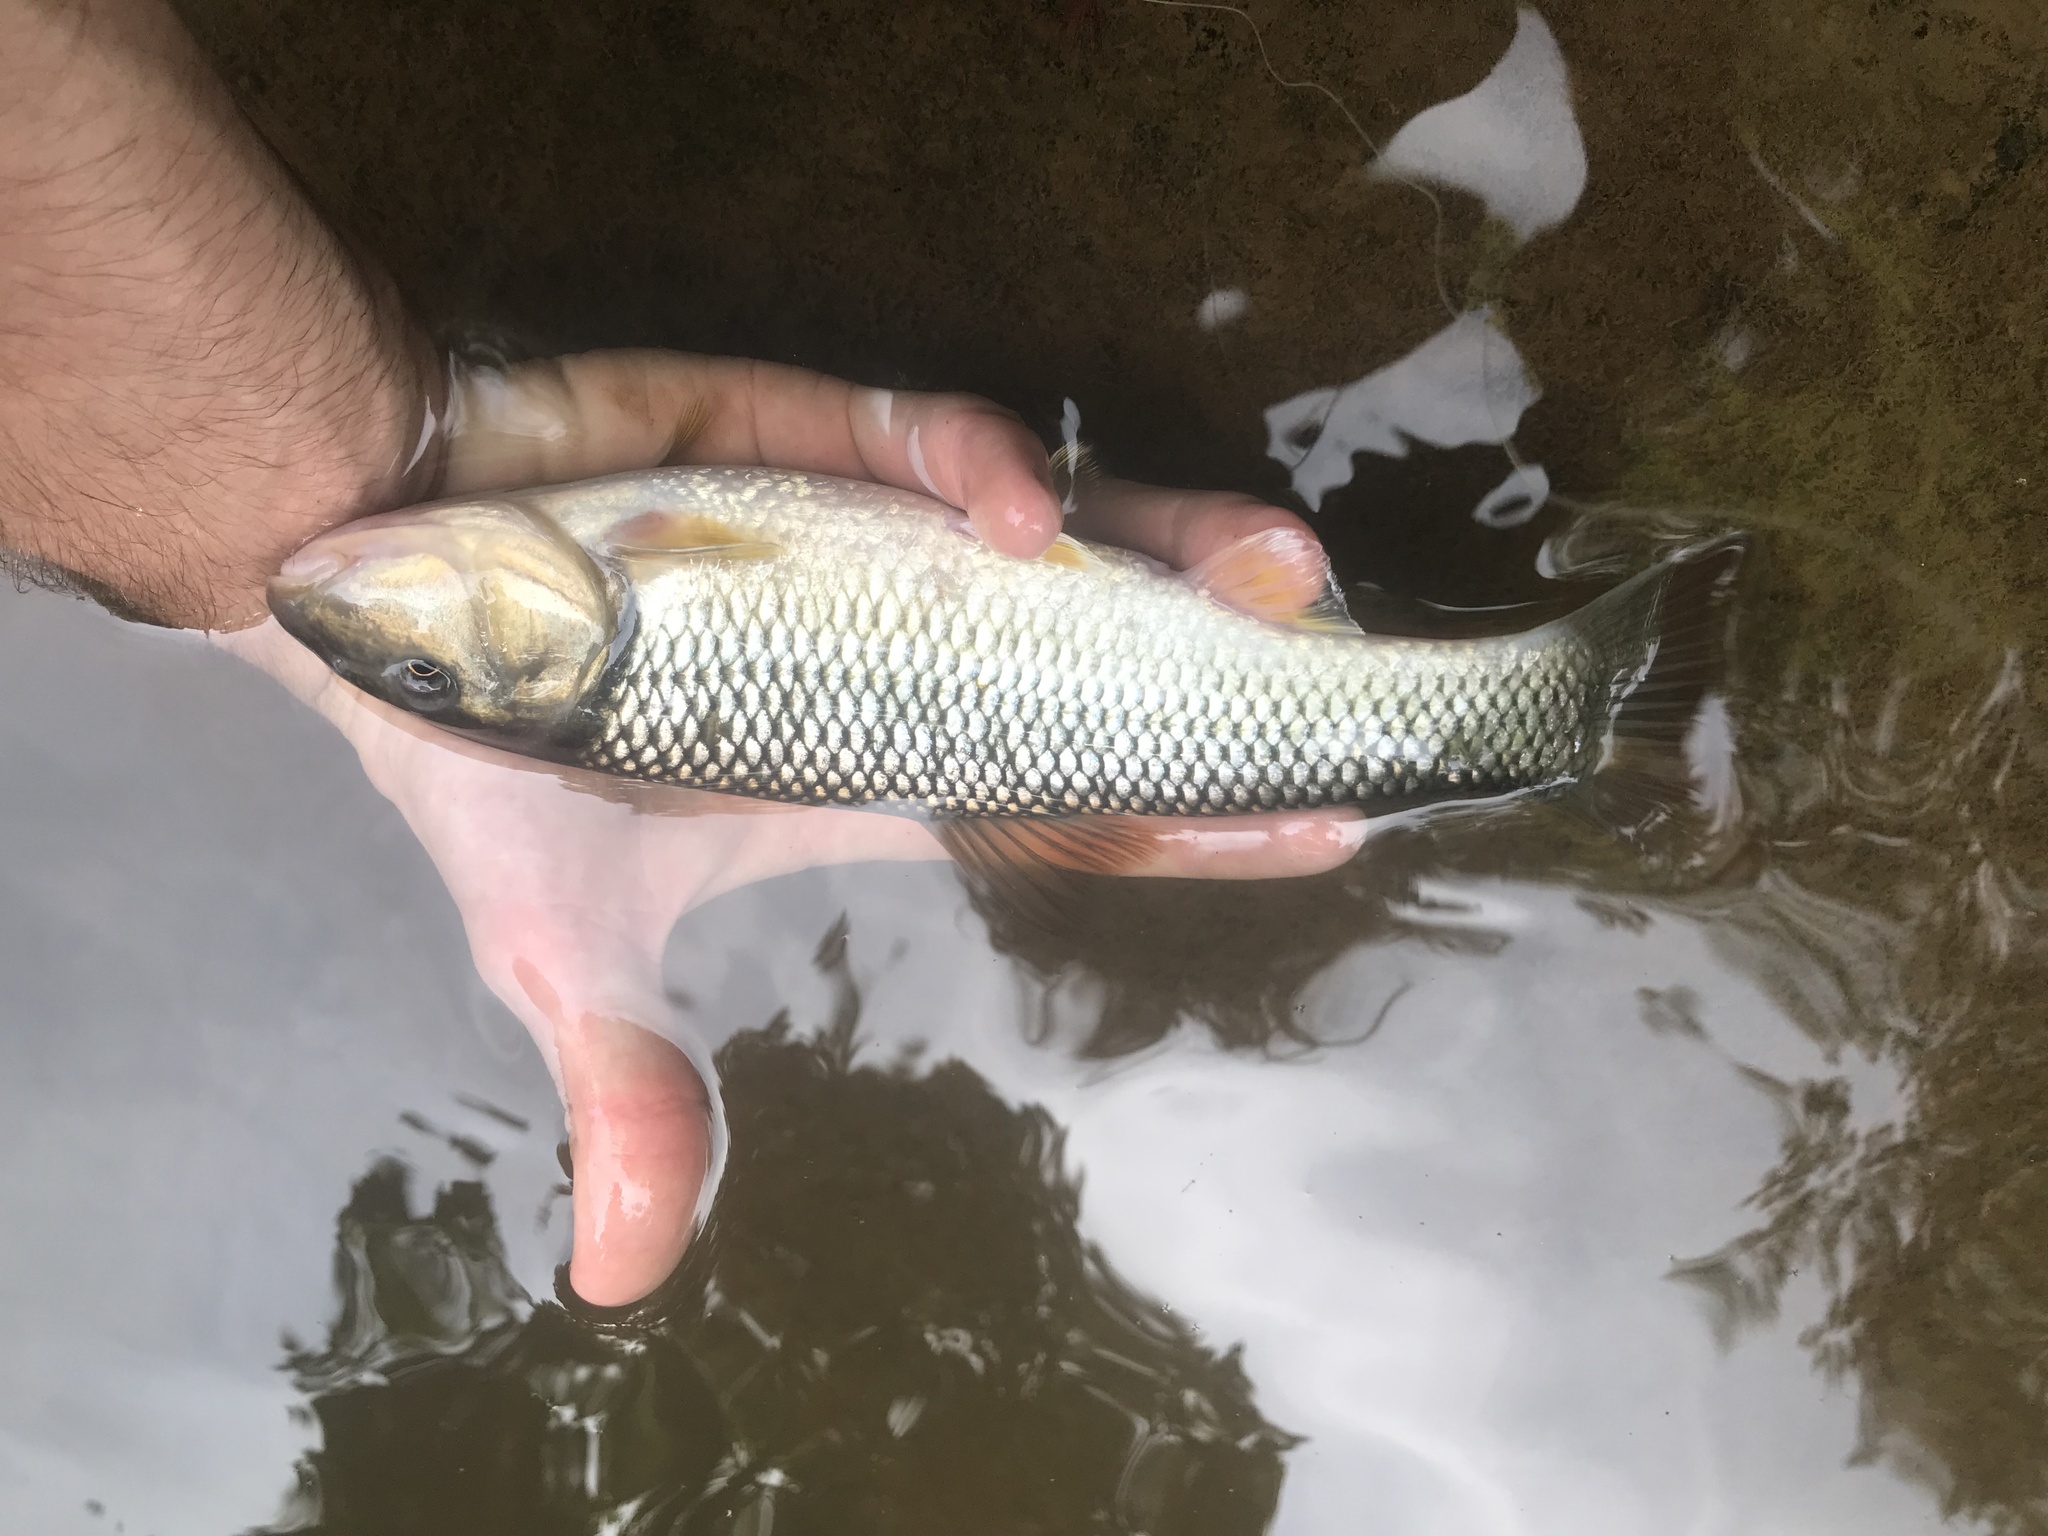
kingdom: Animalia
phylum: Chordata
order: Cypriniformes
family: Cyprinidae
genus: Nocomis
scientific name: Nocomis raneyi
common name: Bull chub
